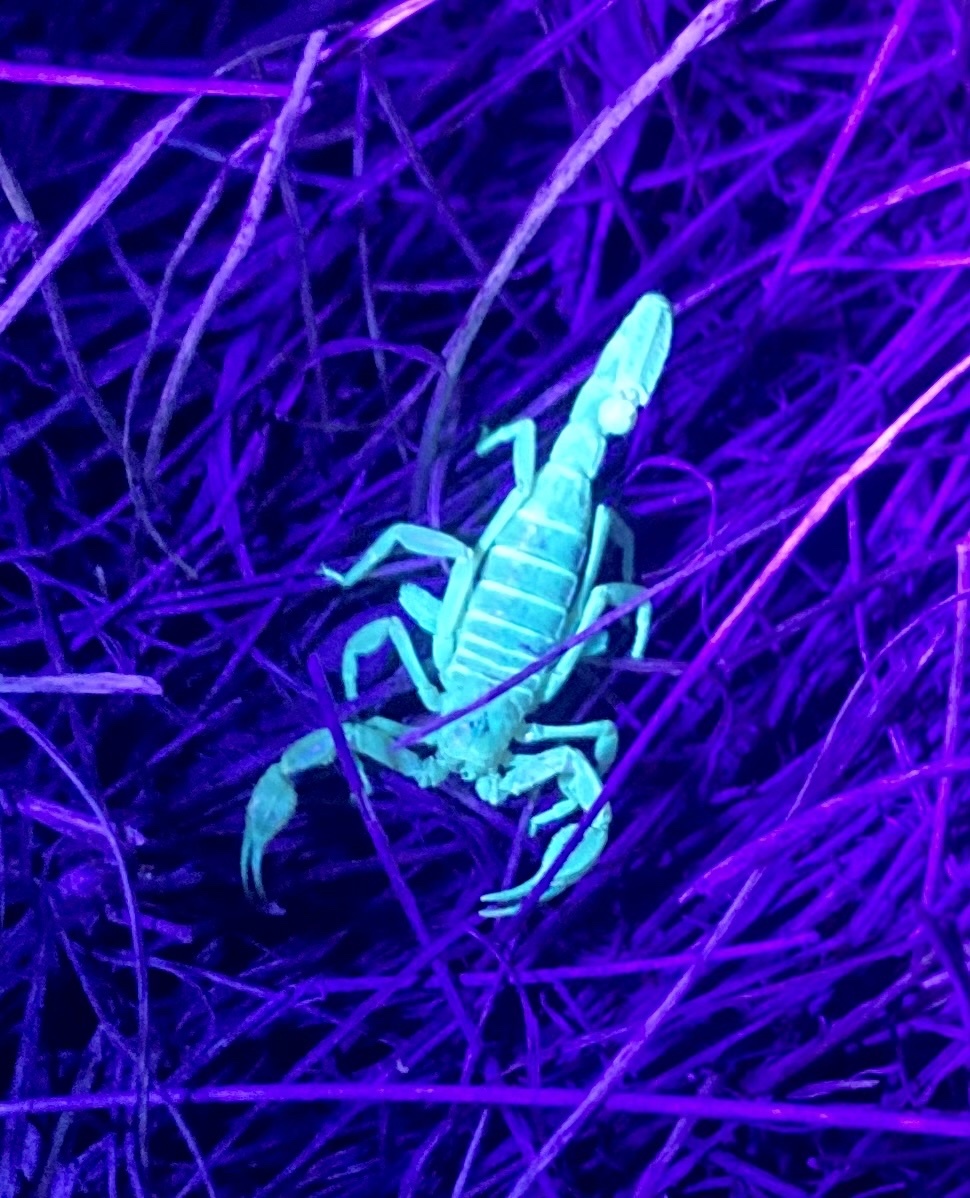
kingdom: Animalia
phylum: Arthropoda
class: Arachnida
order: Scorpiones
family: Vaejovidae
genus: Paruroctonus
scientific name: Paruroctonus boreus
